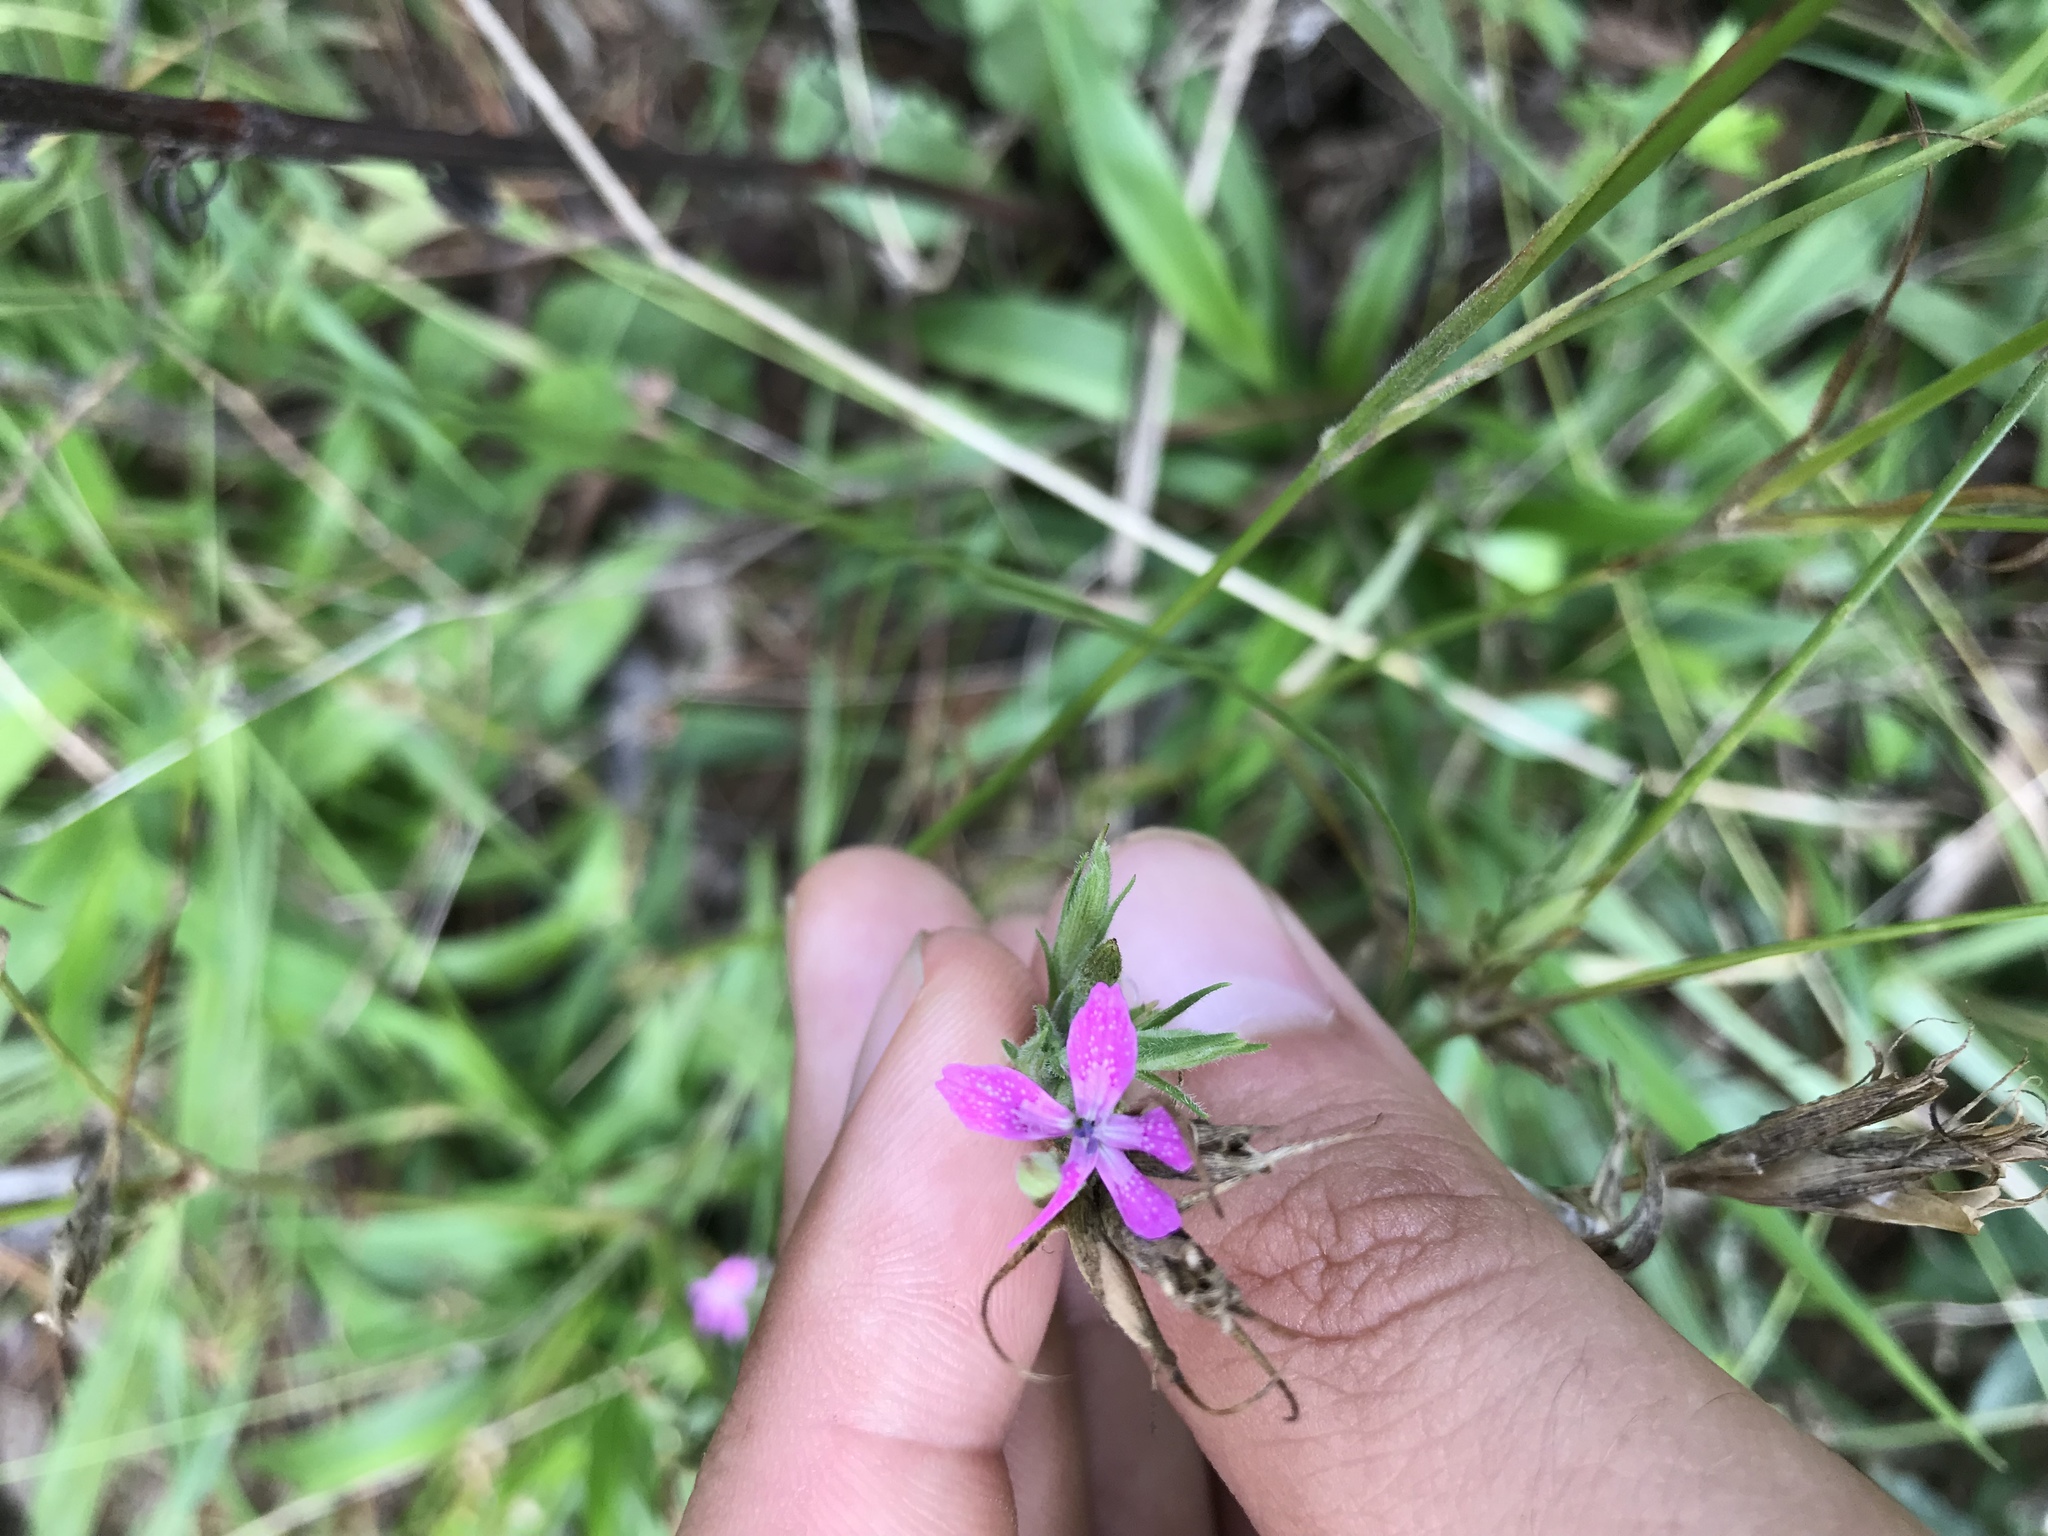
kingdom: Plantae
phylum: Tracheophyta
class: Magnoliopsida
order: Caryophyllales
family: Caryophyllaceae
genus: Dianthus
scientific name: Dianthus armeria
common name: Deptford pink
